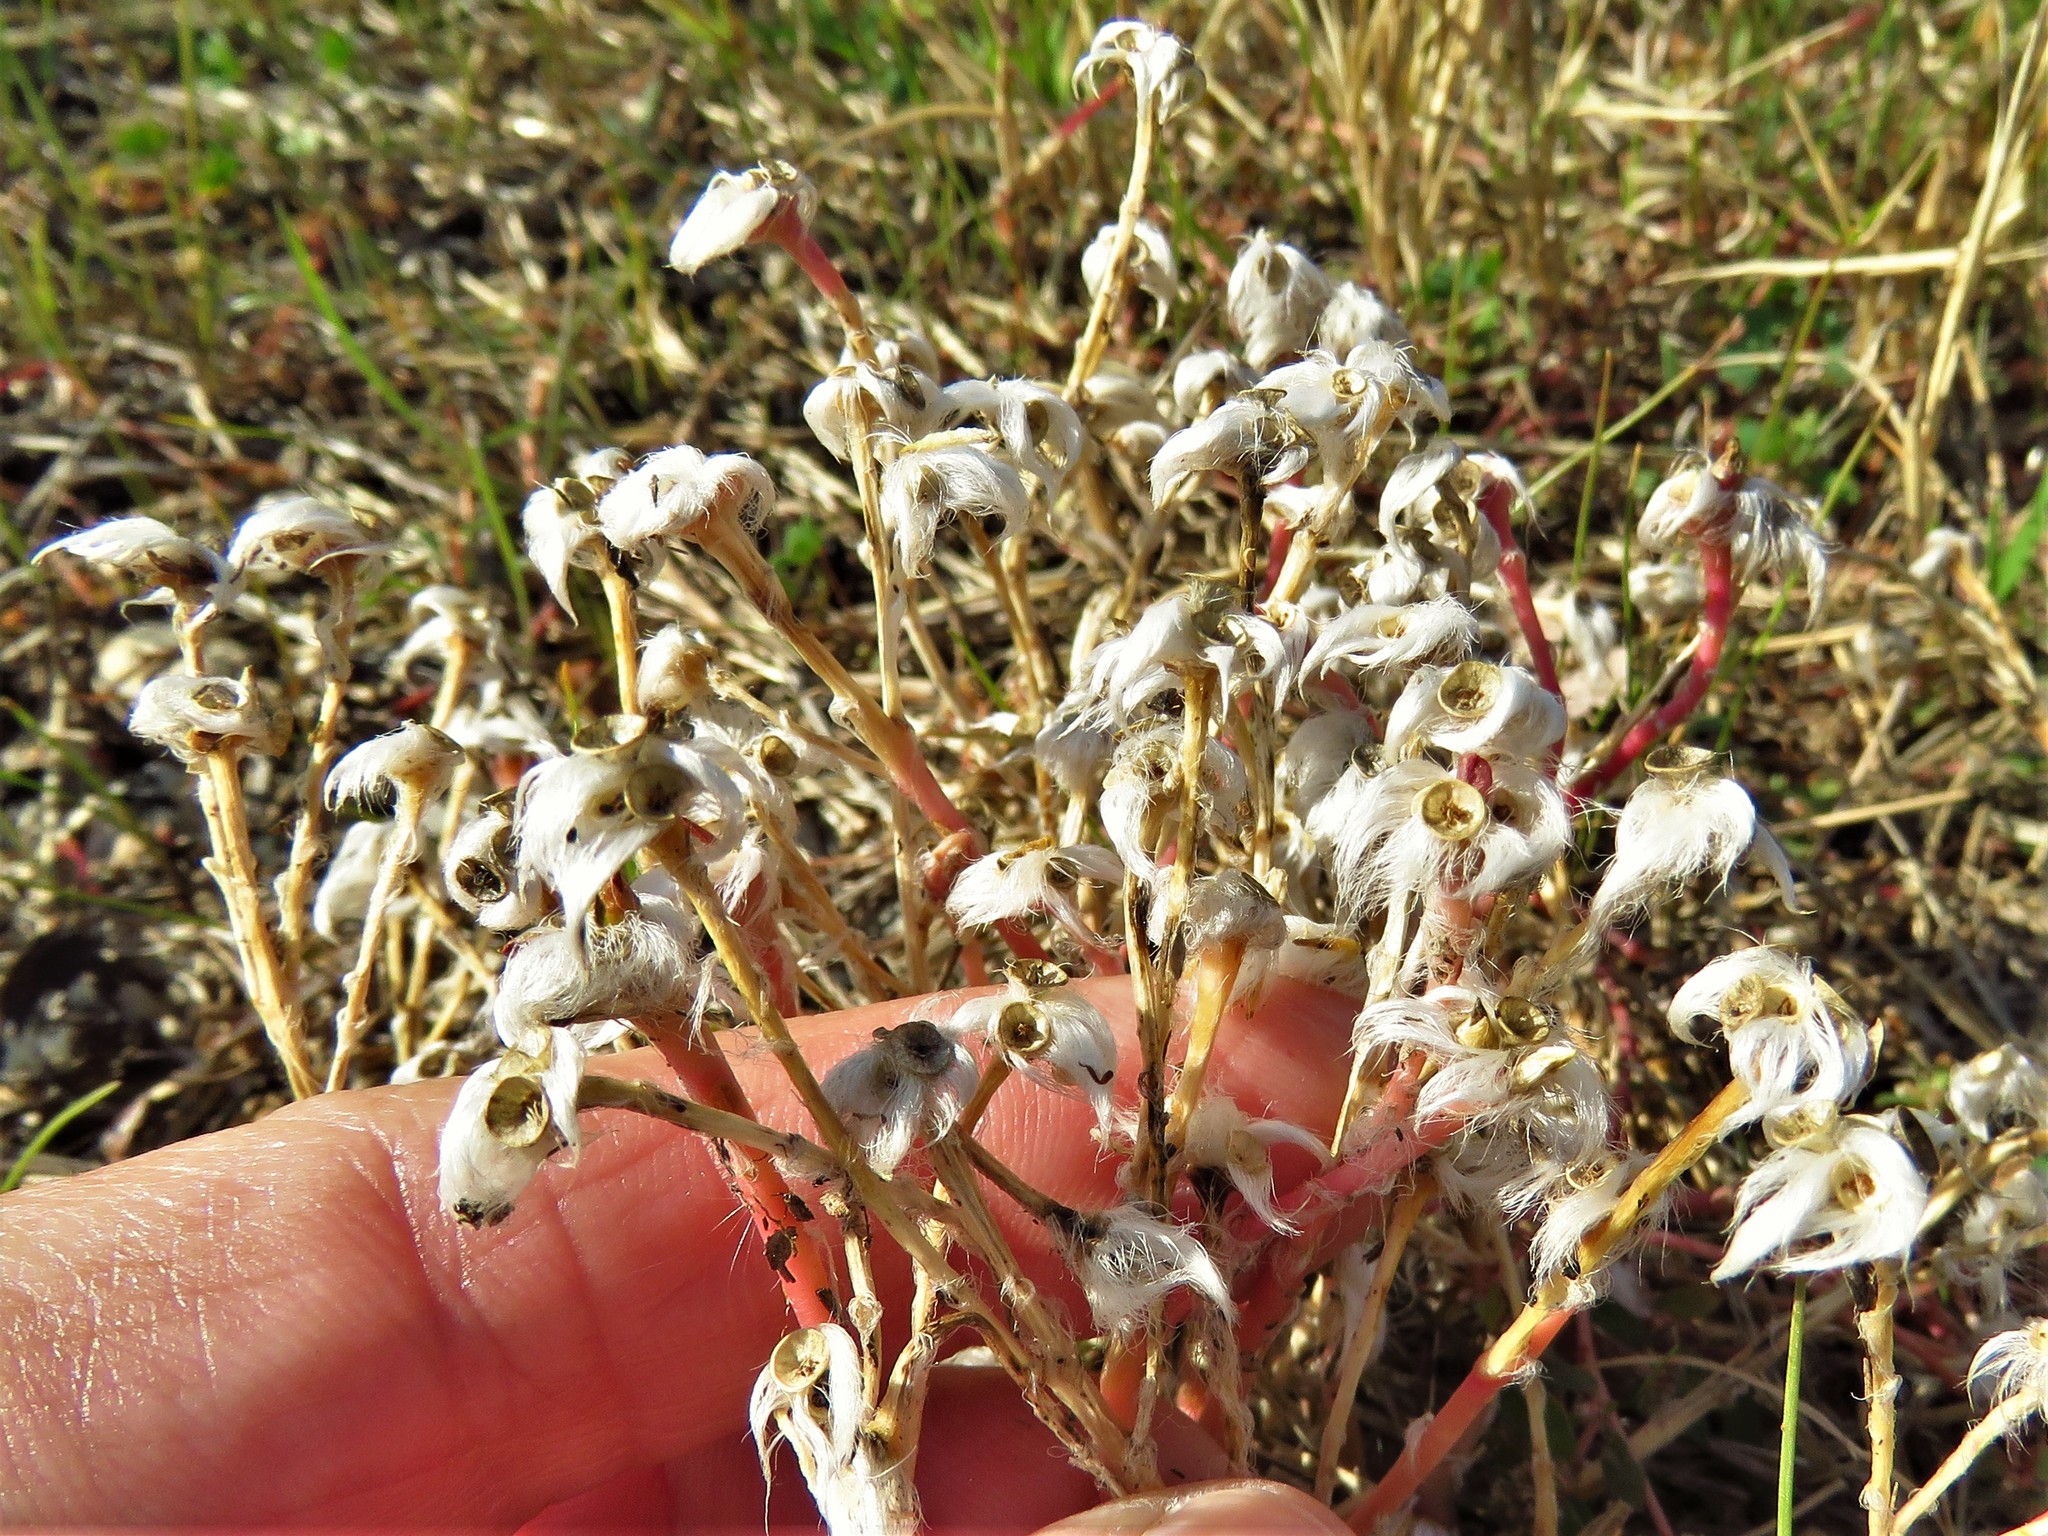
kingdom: Plantae
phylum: Tracheophyta
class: Magnoliopsida
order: Caryophyllales
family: Portulacaceae
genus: Portulaca
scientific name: Portulaca pilosa
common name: Kiss me quick
